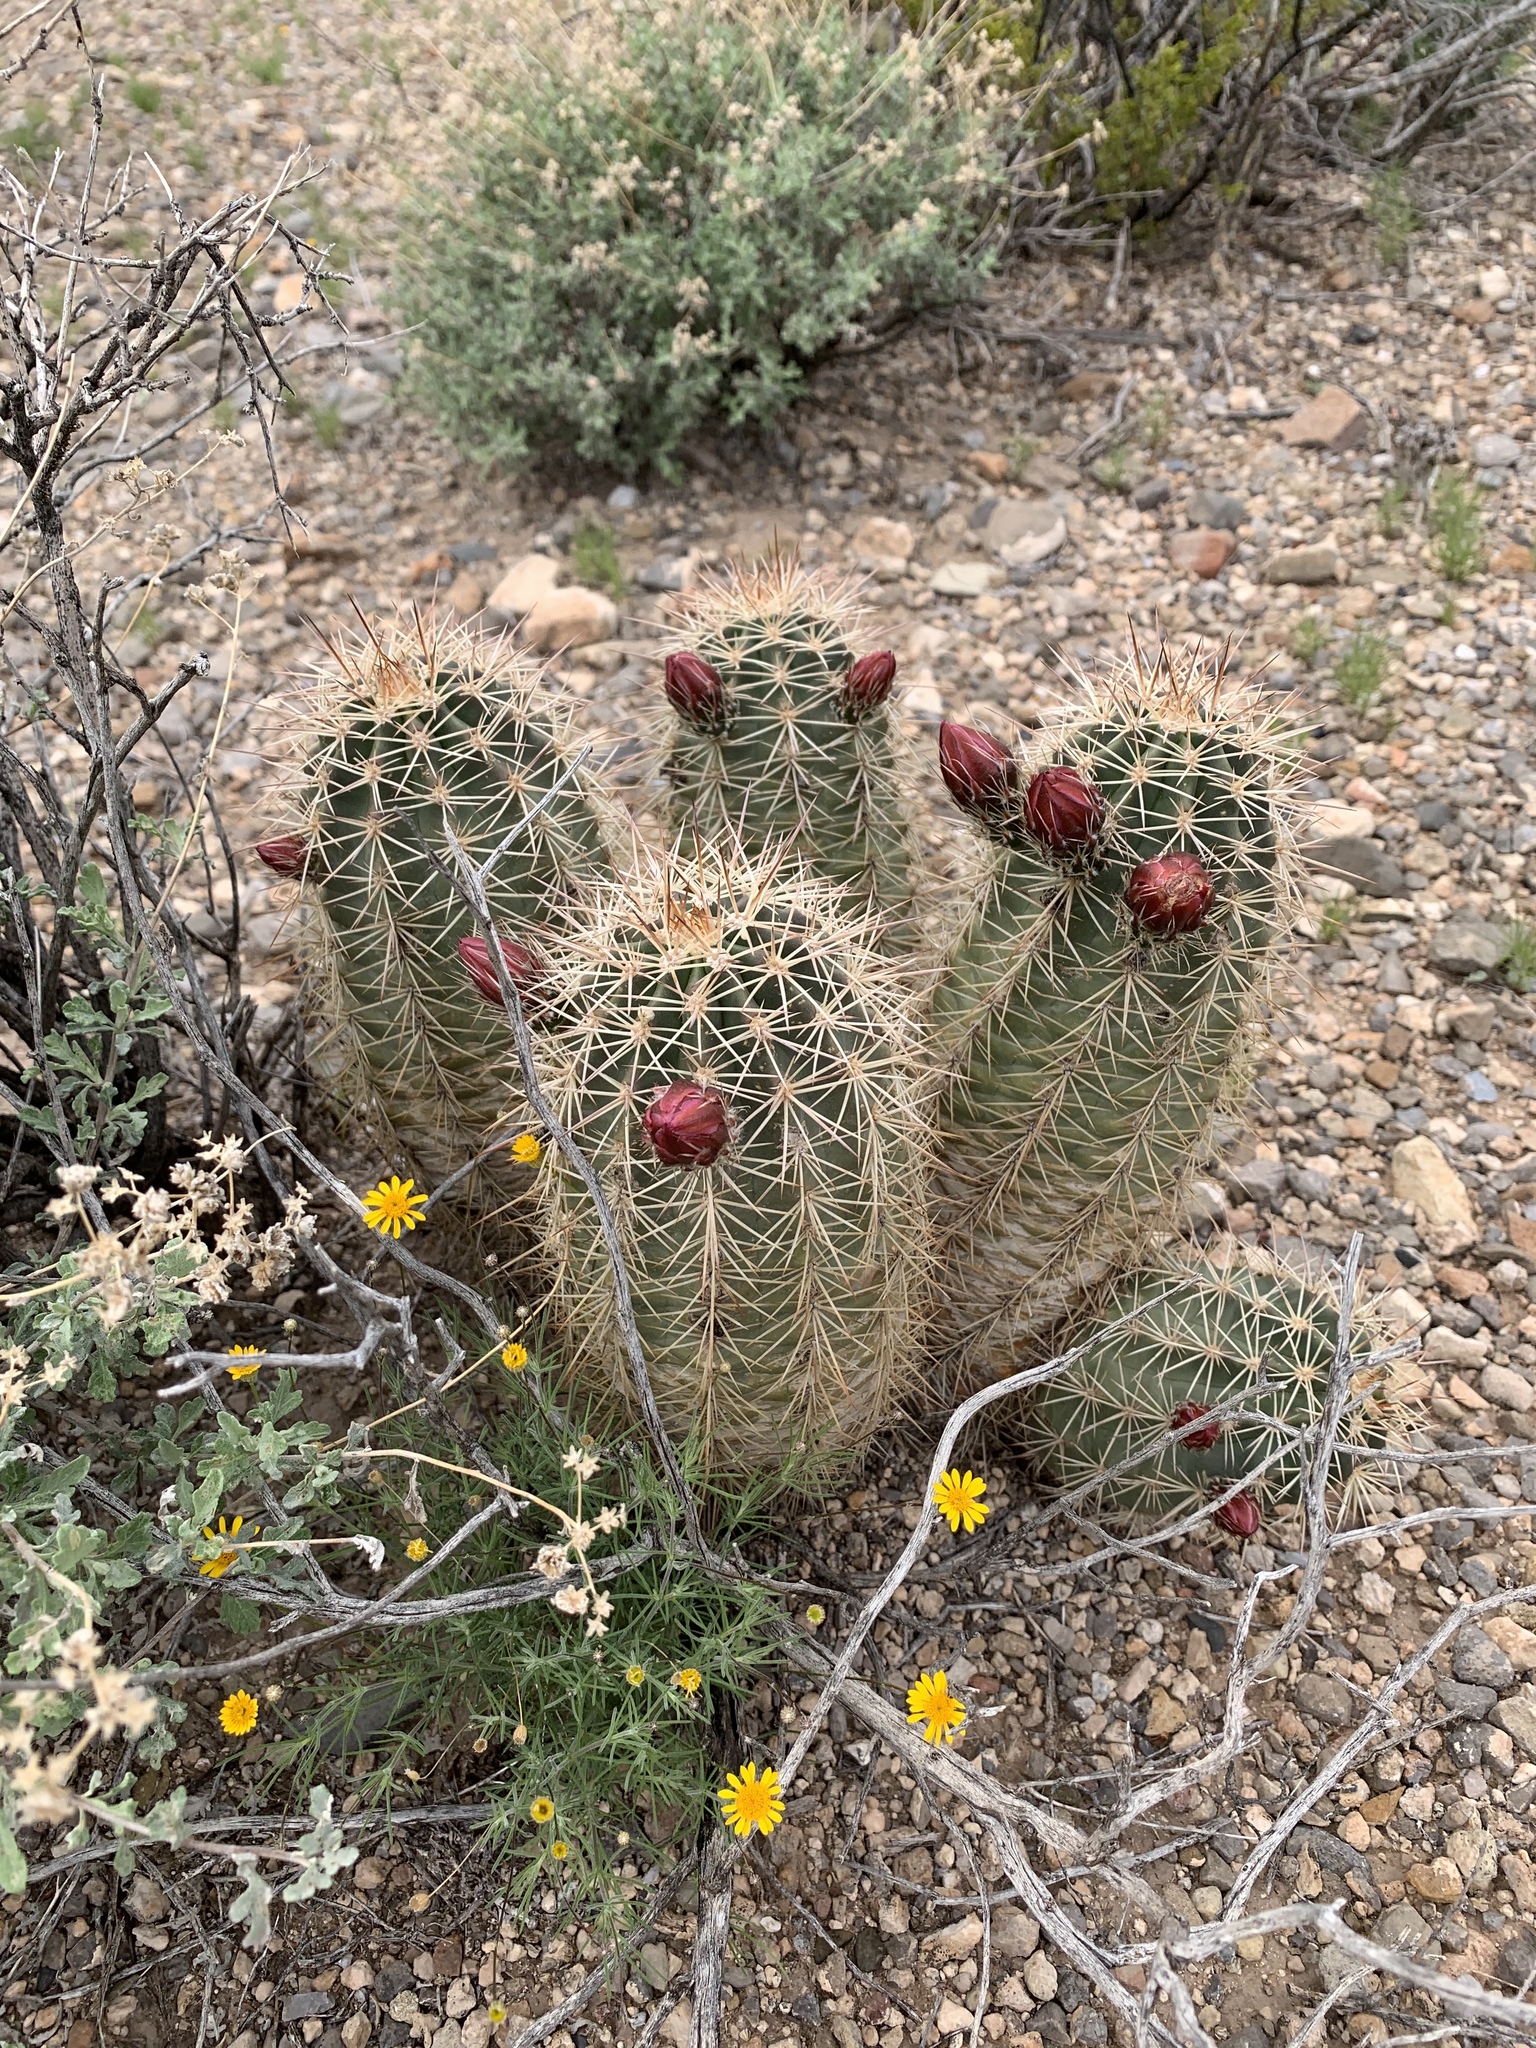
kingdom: Plantae
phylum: Tracheophyta
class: Magnoliopsida
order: Caryophyllales
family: Cactaceae
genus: Echinocereus
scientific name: Echinocereus coccineus
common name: Scarlet hedgehog cactus
